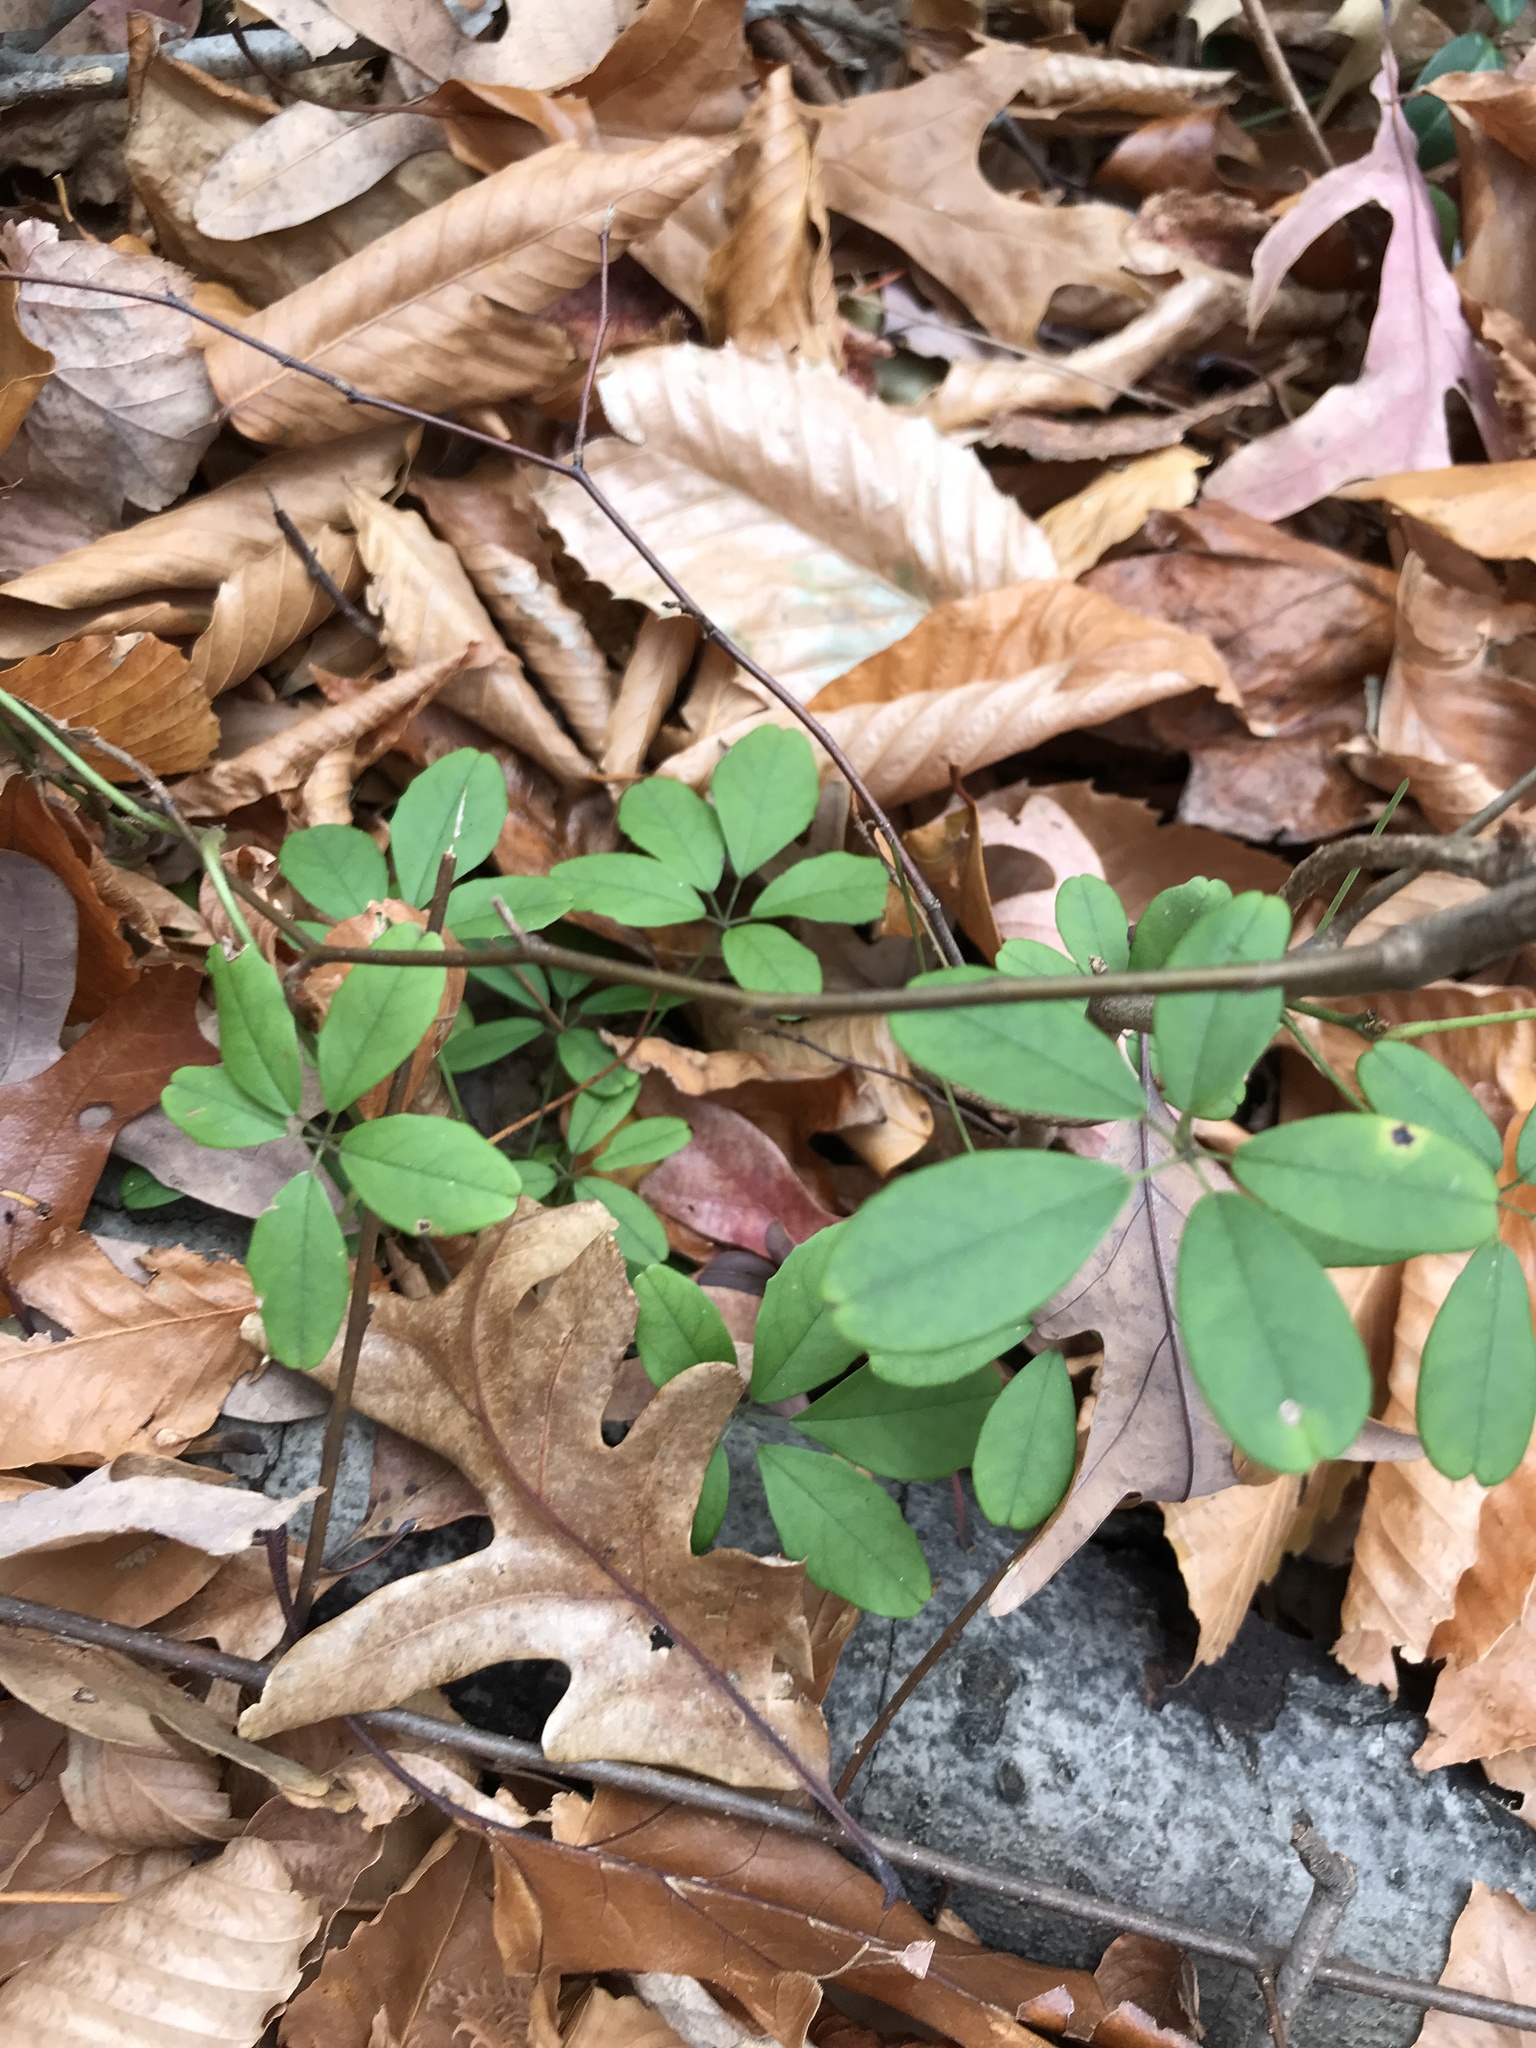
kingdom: Plantae
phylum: Tracheophyta
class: Magnoliopsida
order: Ranunculales
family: Lardizabalaceae
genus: Akebia
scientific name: Akebia quinata
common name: Five-leaf akebia
